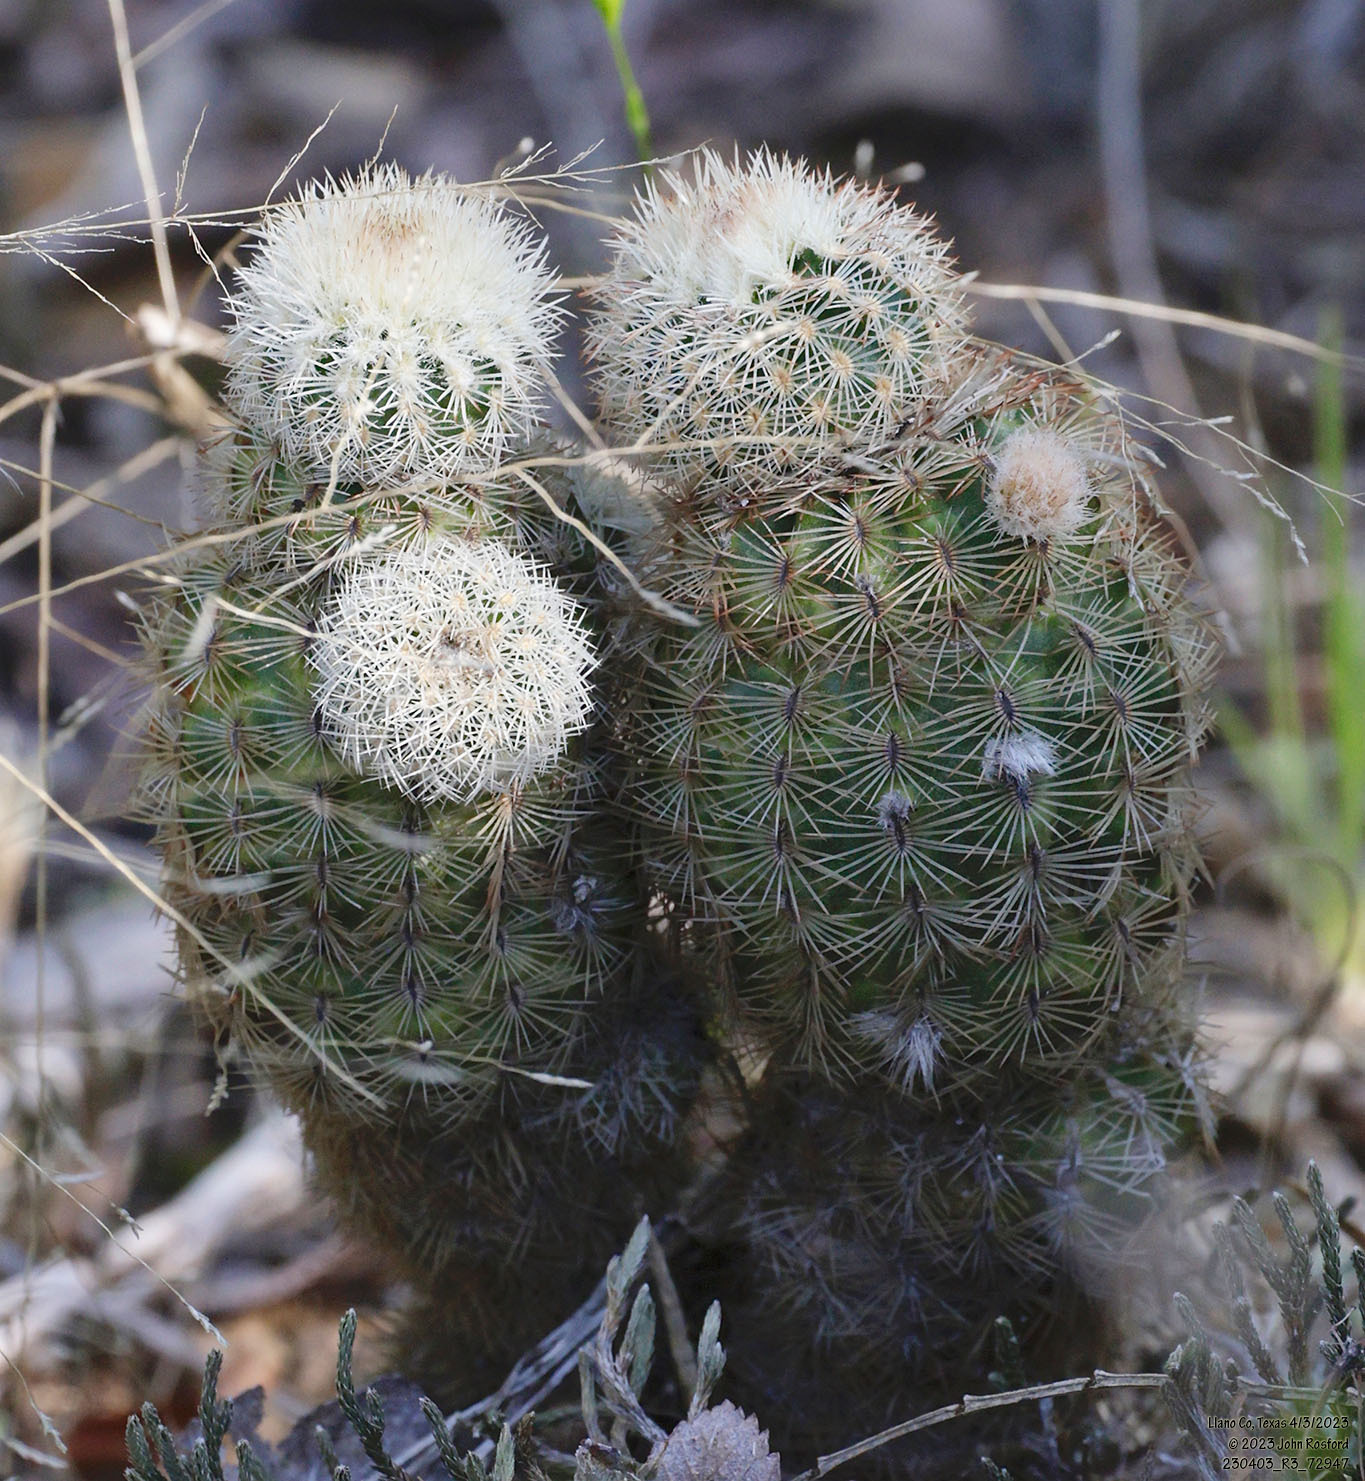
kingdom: Plantae
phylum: Tracheophyta
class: Magnoliopsida
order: Caryophyllales
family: Cactaceae
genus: Echinocereus
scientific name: Echinocereus reichenbachii
